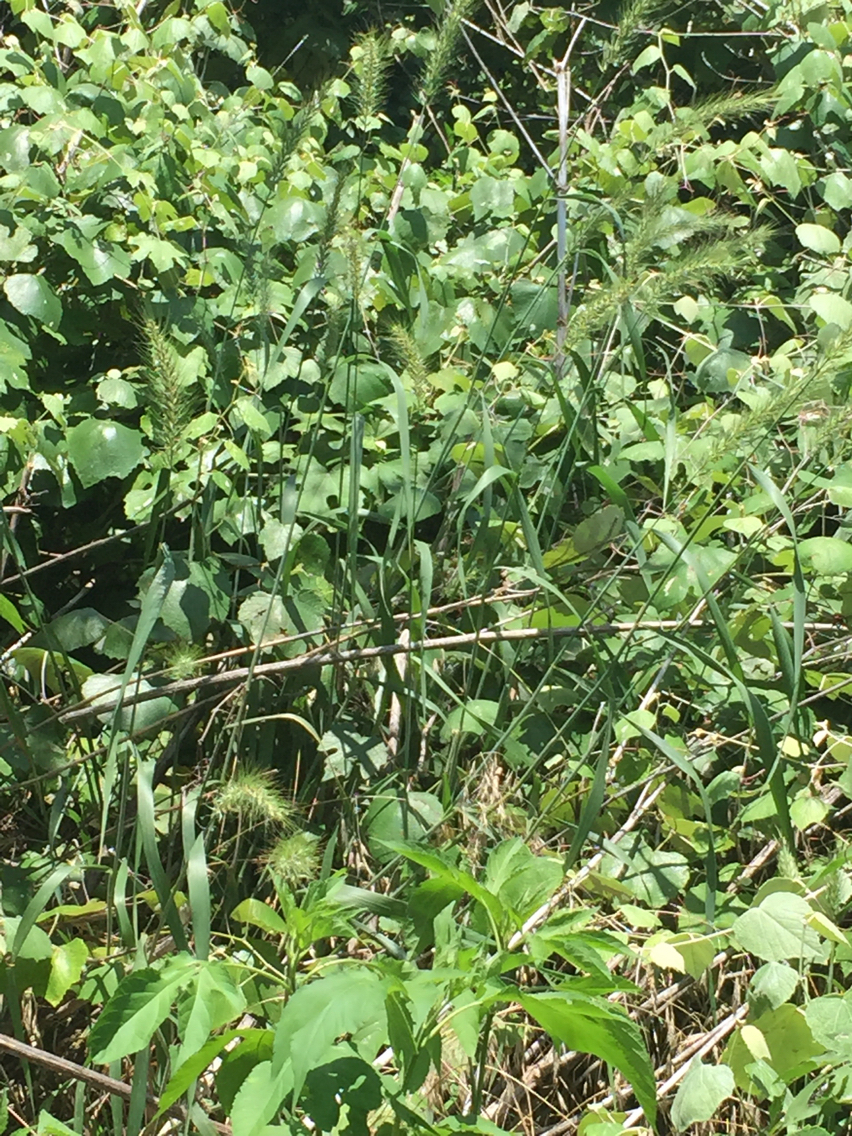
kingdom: Plantae
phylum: Tracheophyta
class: Liliopsida
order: Poales
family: Poaceae
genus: Elymus
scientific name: Elymus canadensis
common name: Canada wild rye
